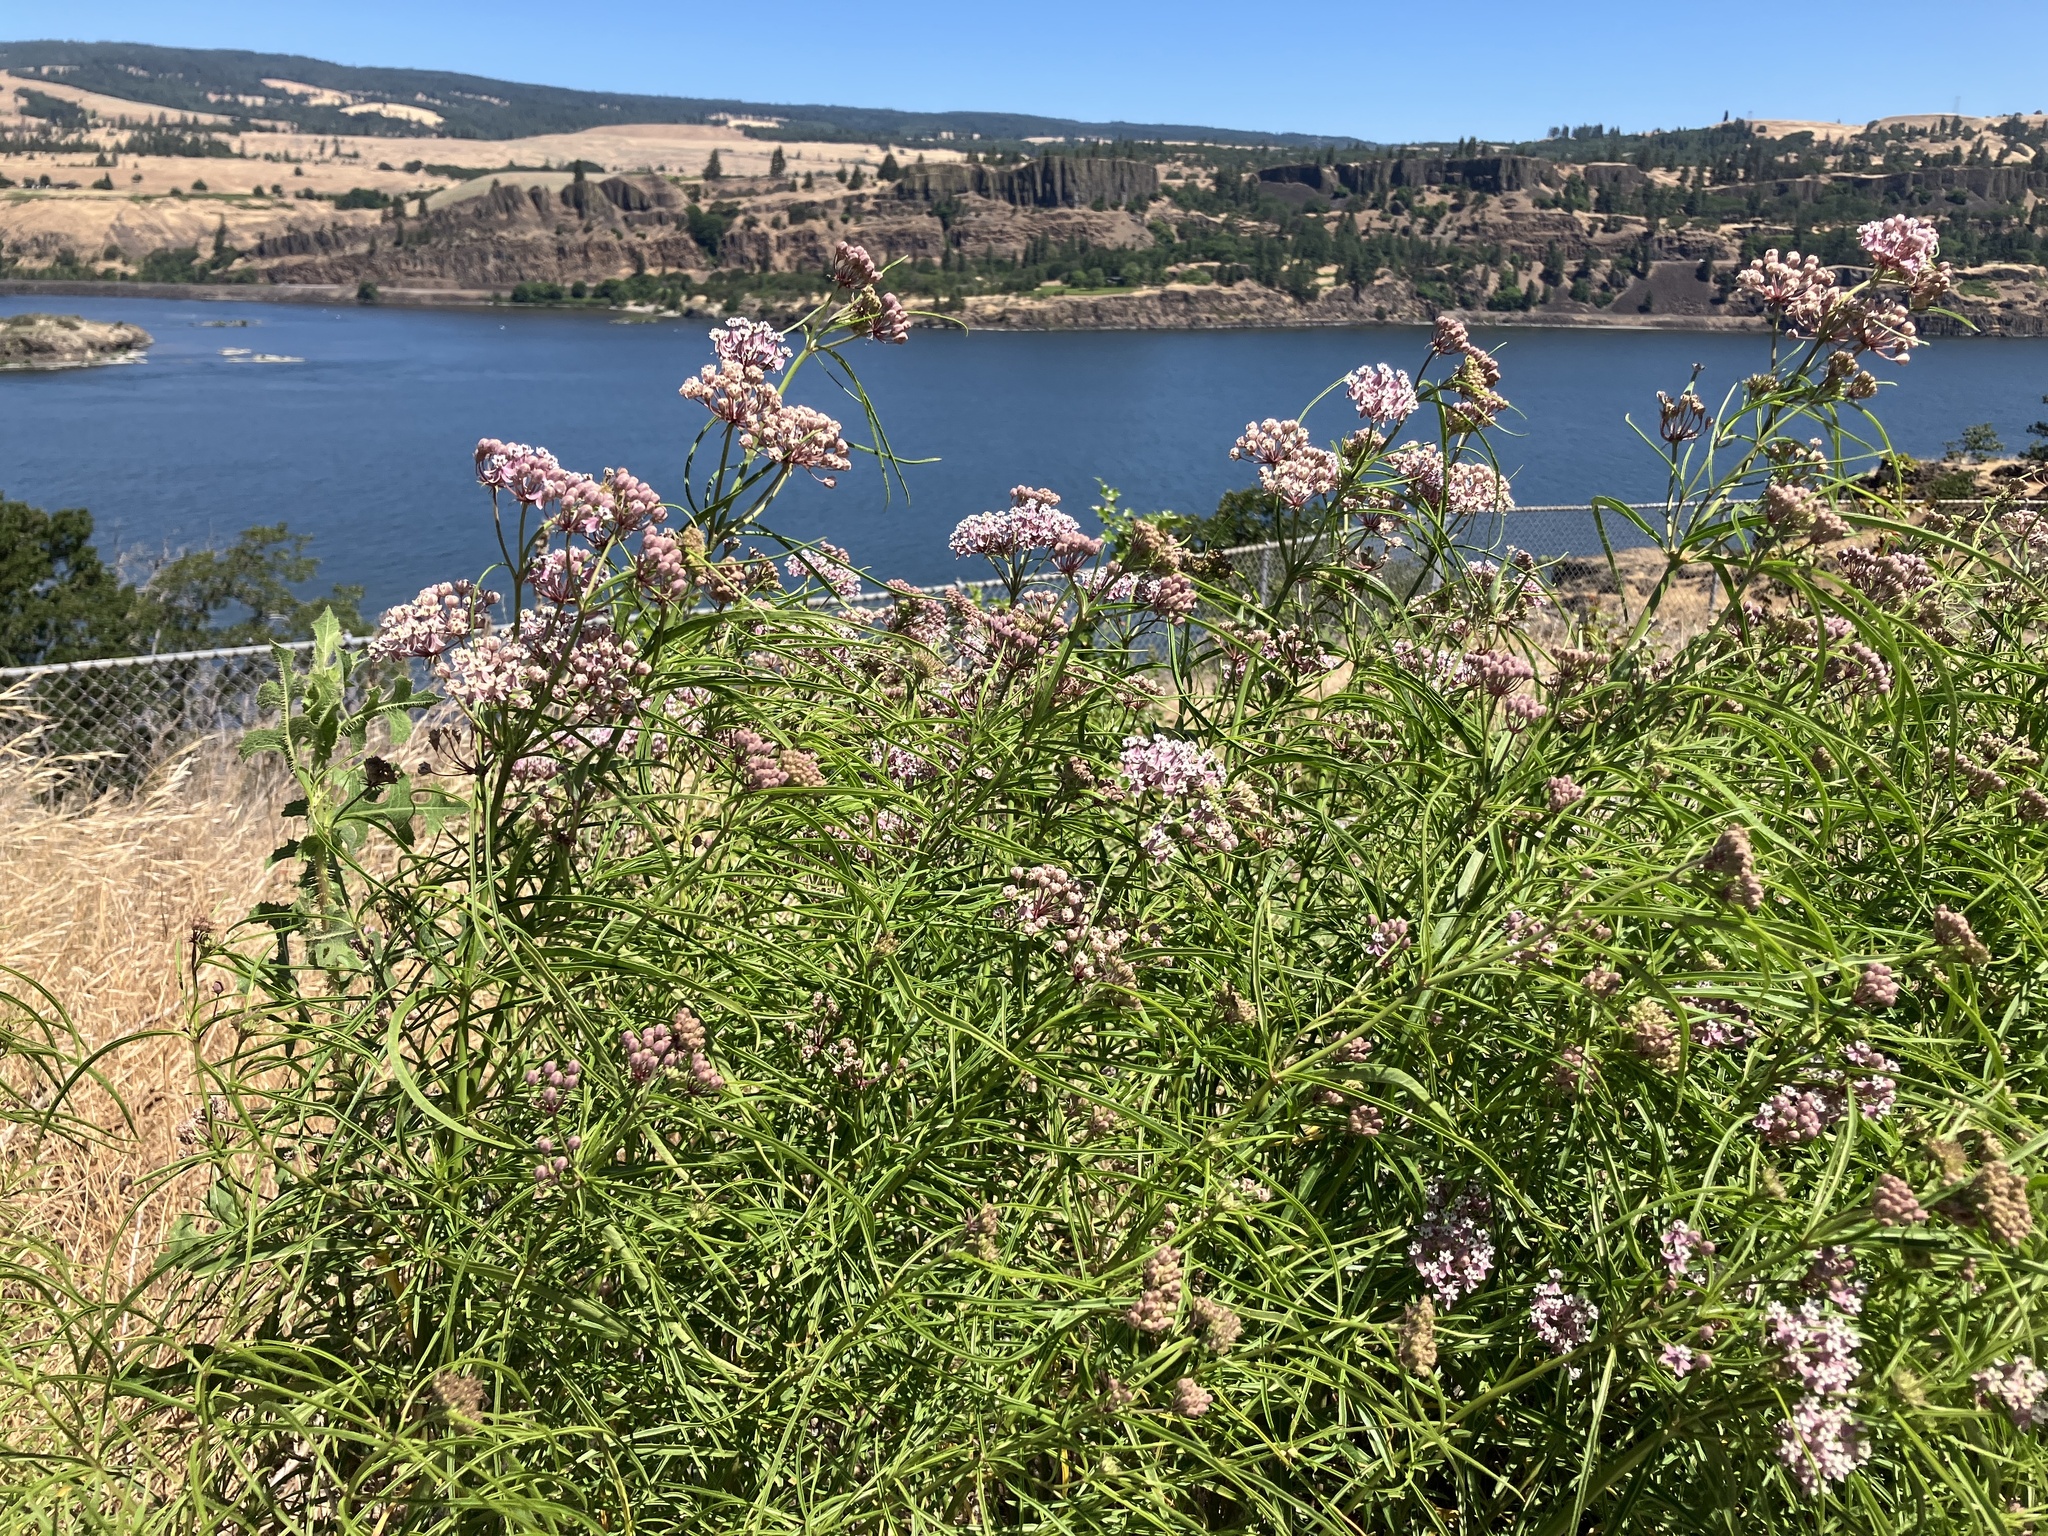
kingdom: Plantae
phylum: Tracheophyta
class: Magnoliopsida
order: Gentianales
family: Apocynaceae
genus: Asclepias
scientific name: Asclepias fascicularis
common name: Mexican milkweed
